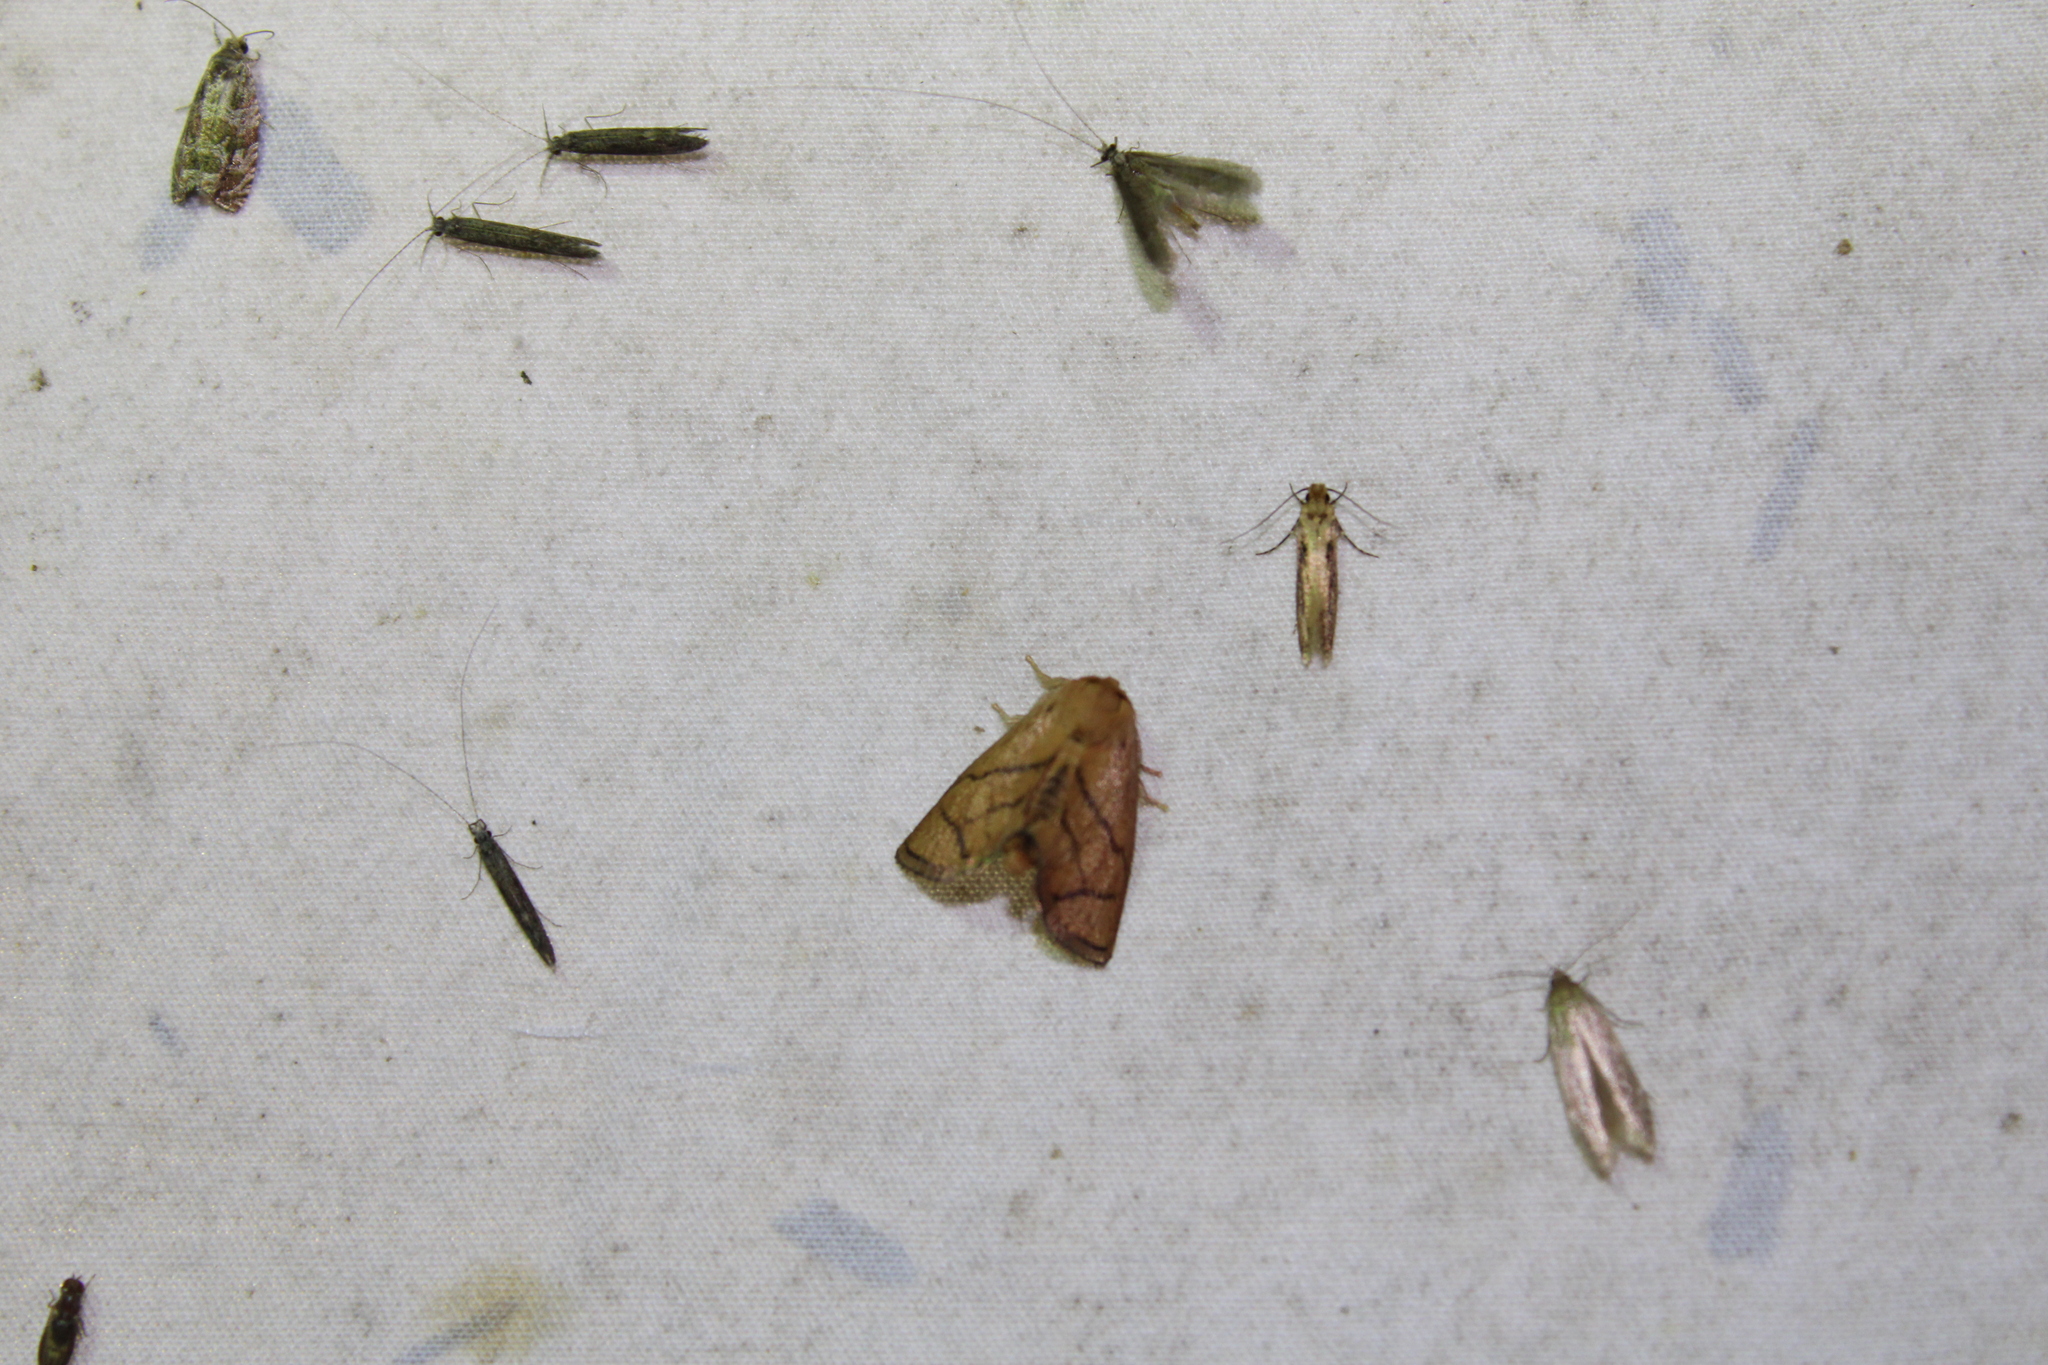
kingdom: Animalia
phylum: Arthropoda
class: Insecta
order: Lepidoptera
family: Limacodidae
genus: Apoda
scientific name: Apoda y-inversa
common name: Yellow-collared slug moth
